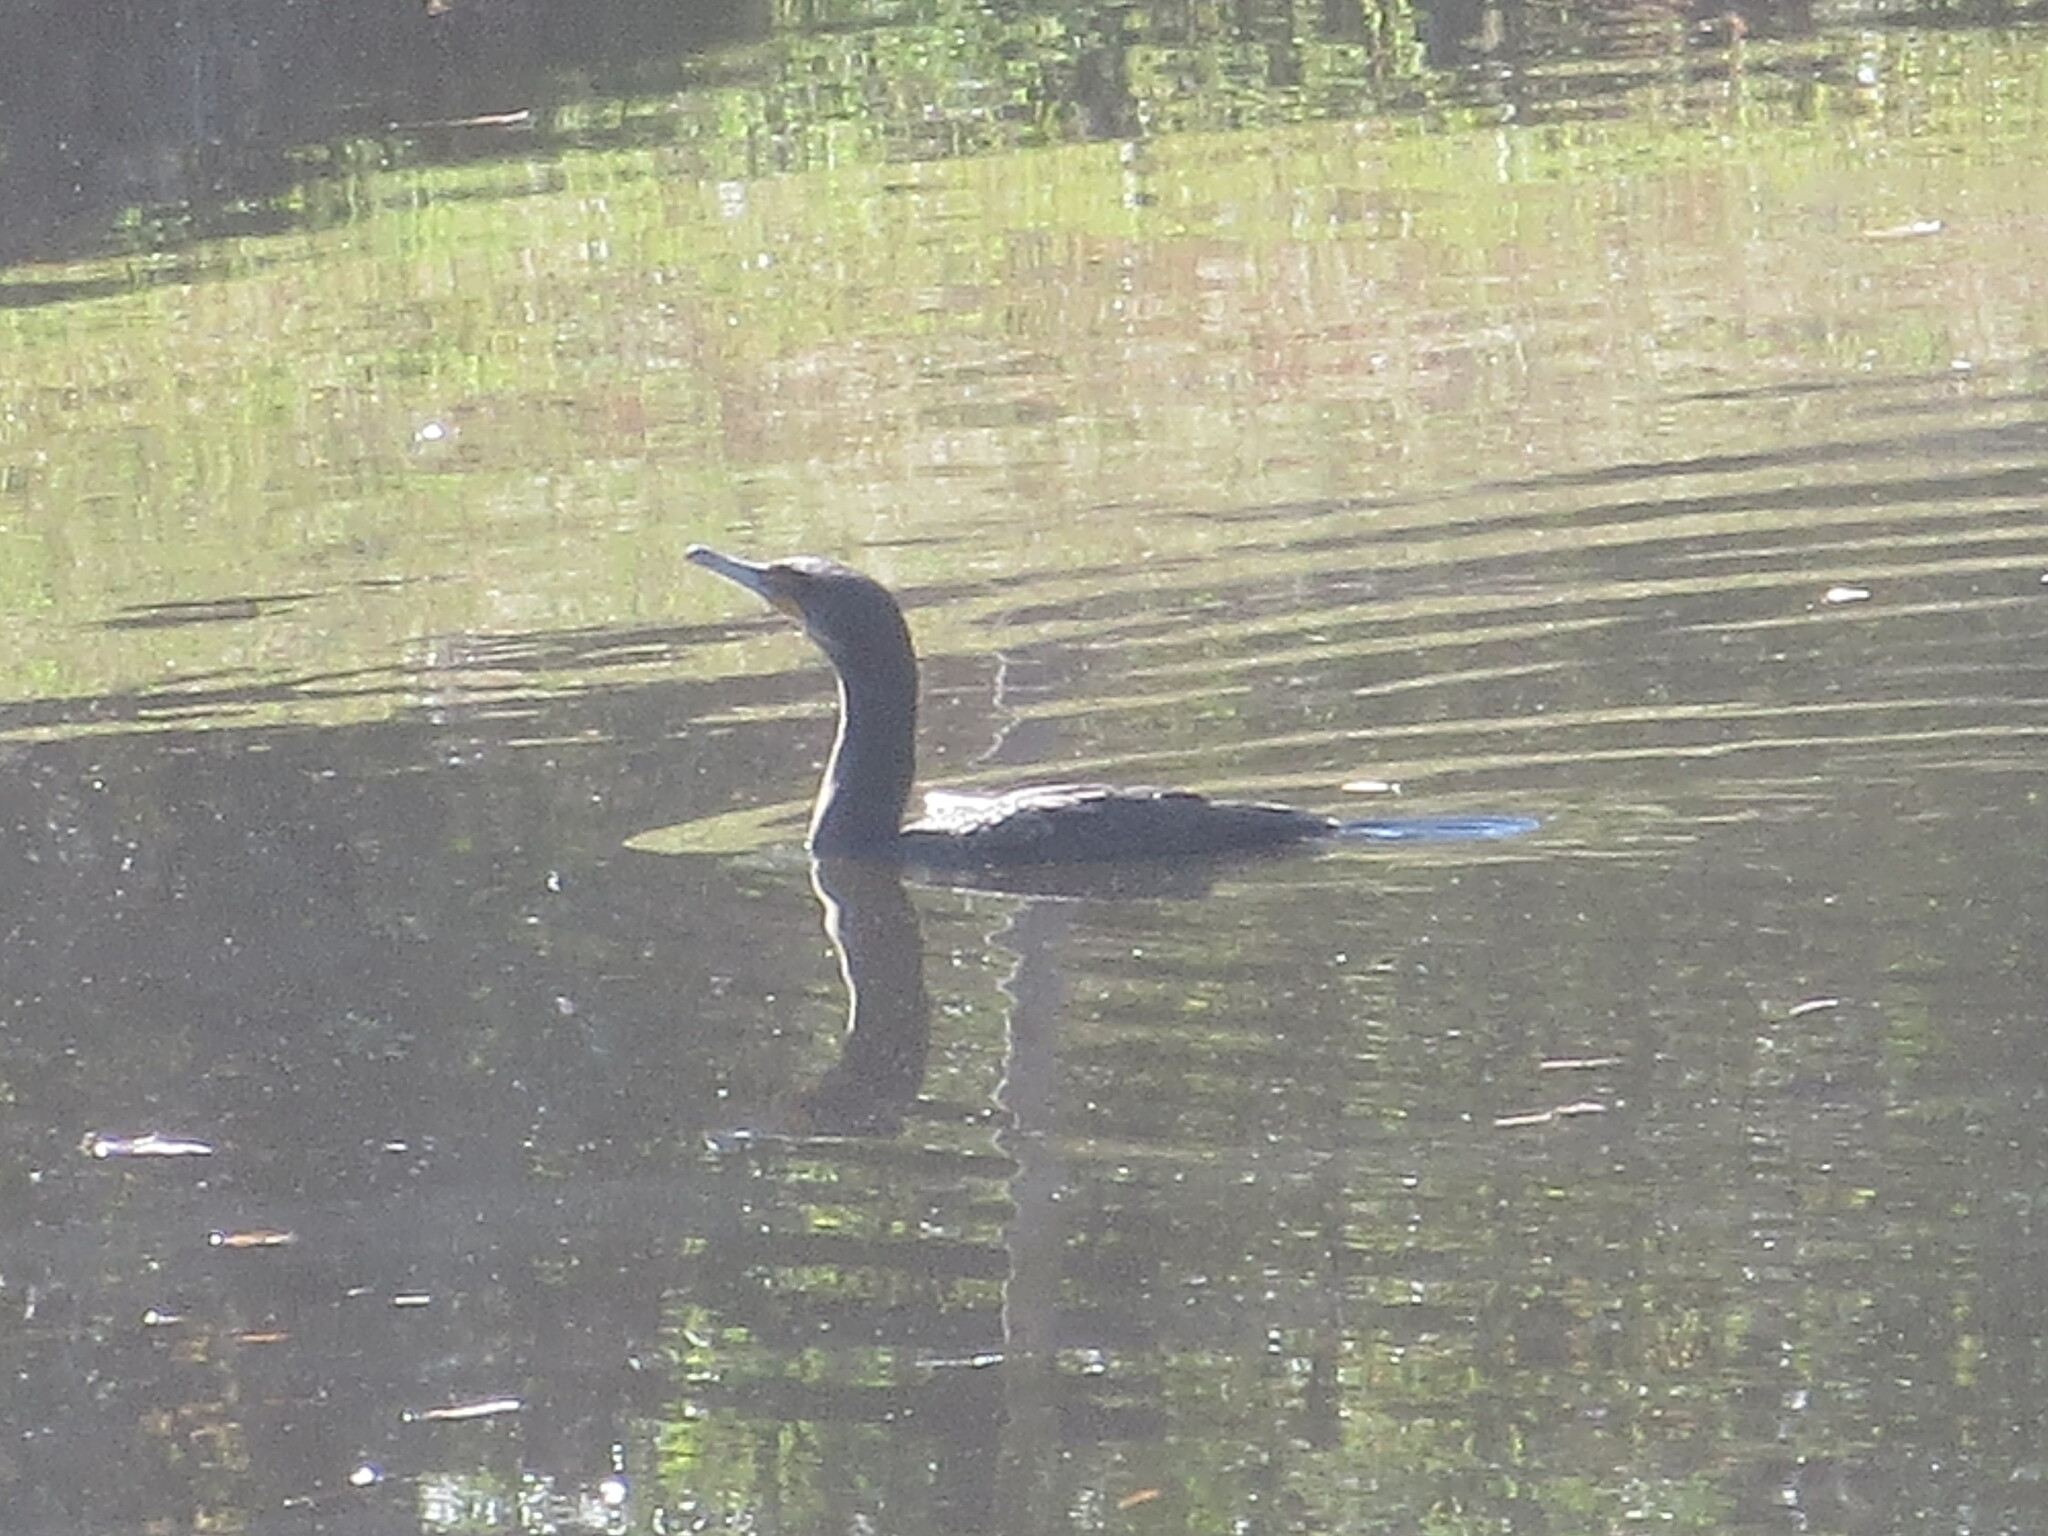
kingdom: Animalia
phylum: Chordata
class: Aves
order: Suliformes
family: Phalacrocoracidae
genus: Phalacrocorax
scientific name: Phalacrocorax auritus
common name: Double-crested cormorant
